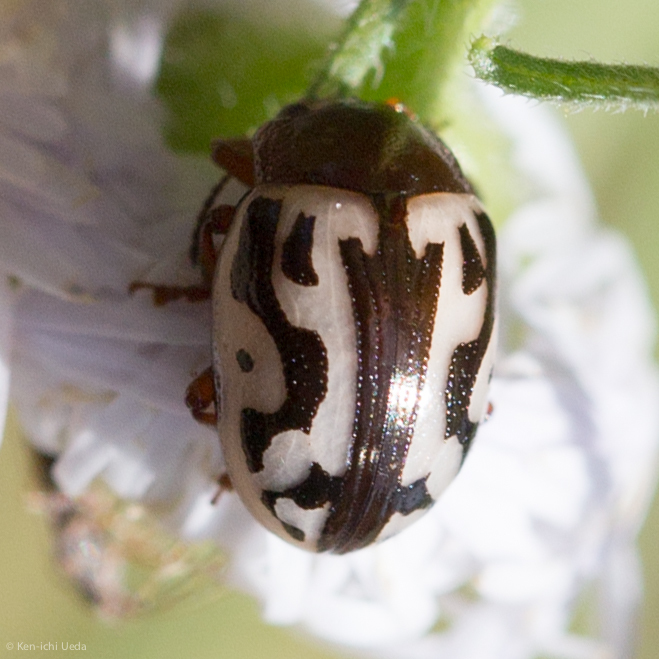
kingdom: Animalia
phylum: Arthropoda
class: Insecta
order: Coleoptera
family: Chrysomelidae
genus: Calligrapha
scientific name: Calligrapha
